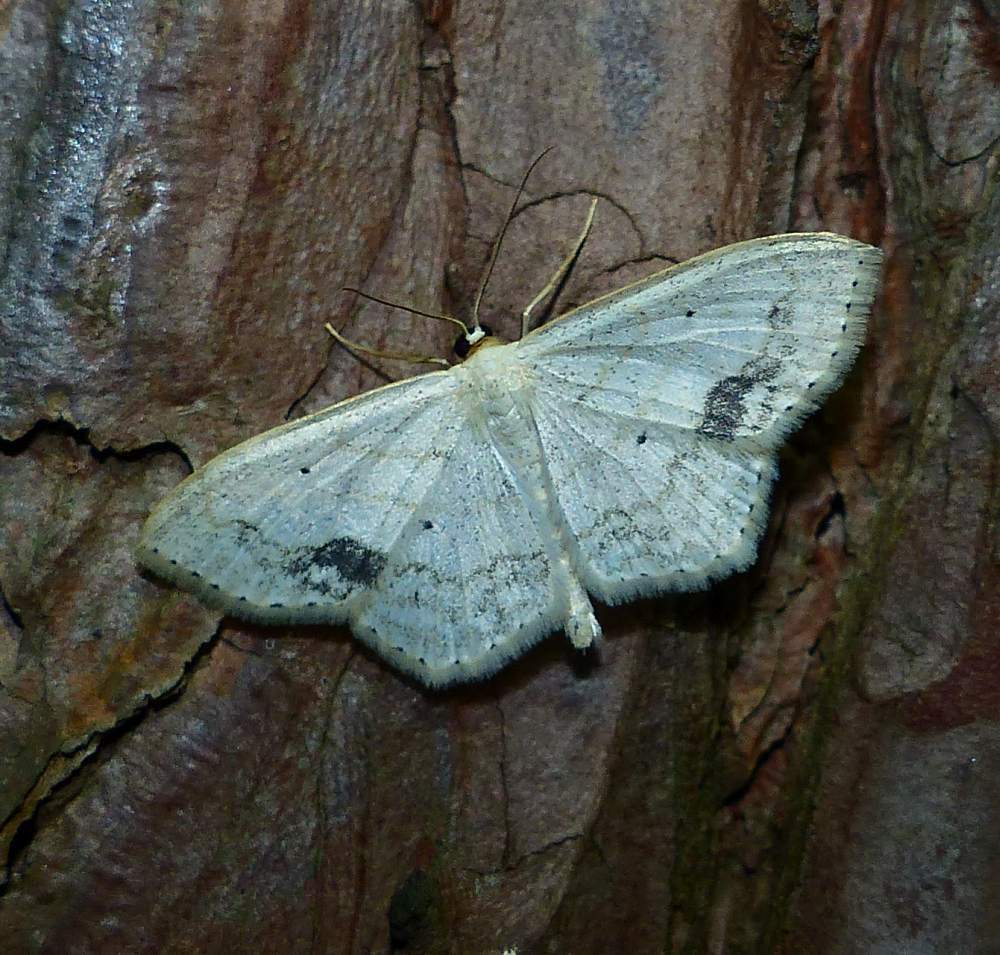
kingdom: Animalia
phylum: Arthropoda
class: Insecta
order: Lepidoptera
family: Geometridae
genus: Scopula
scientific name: Scopula limboundata
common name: Large lace border
